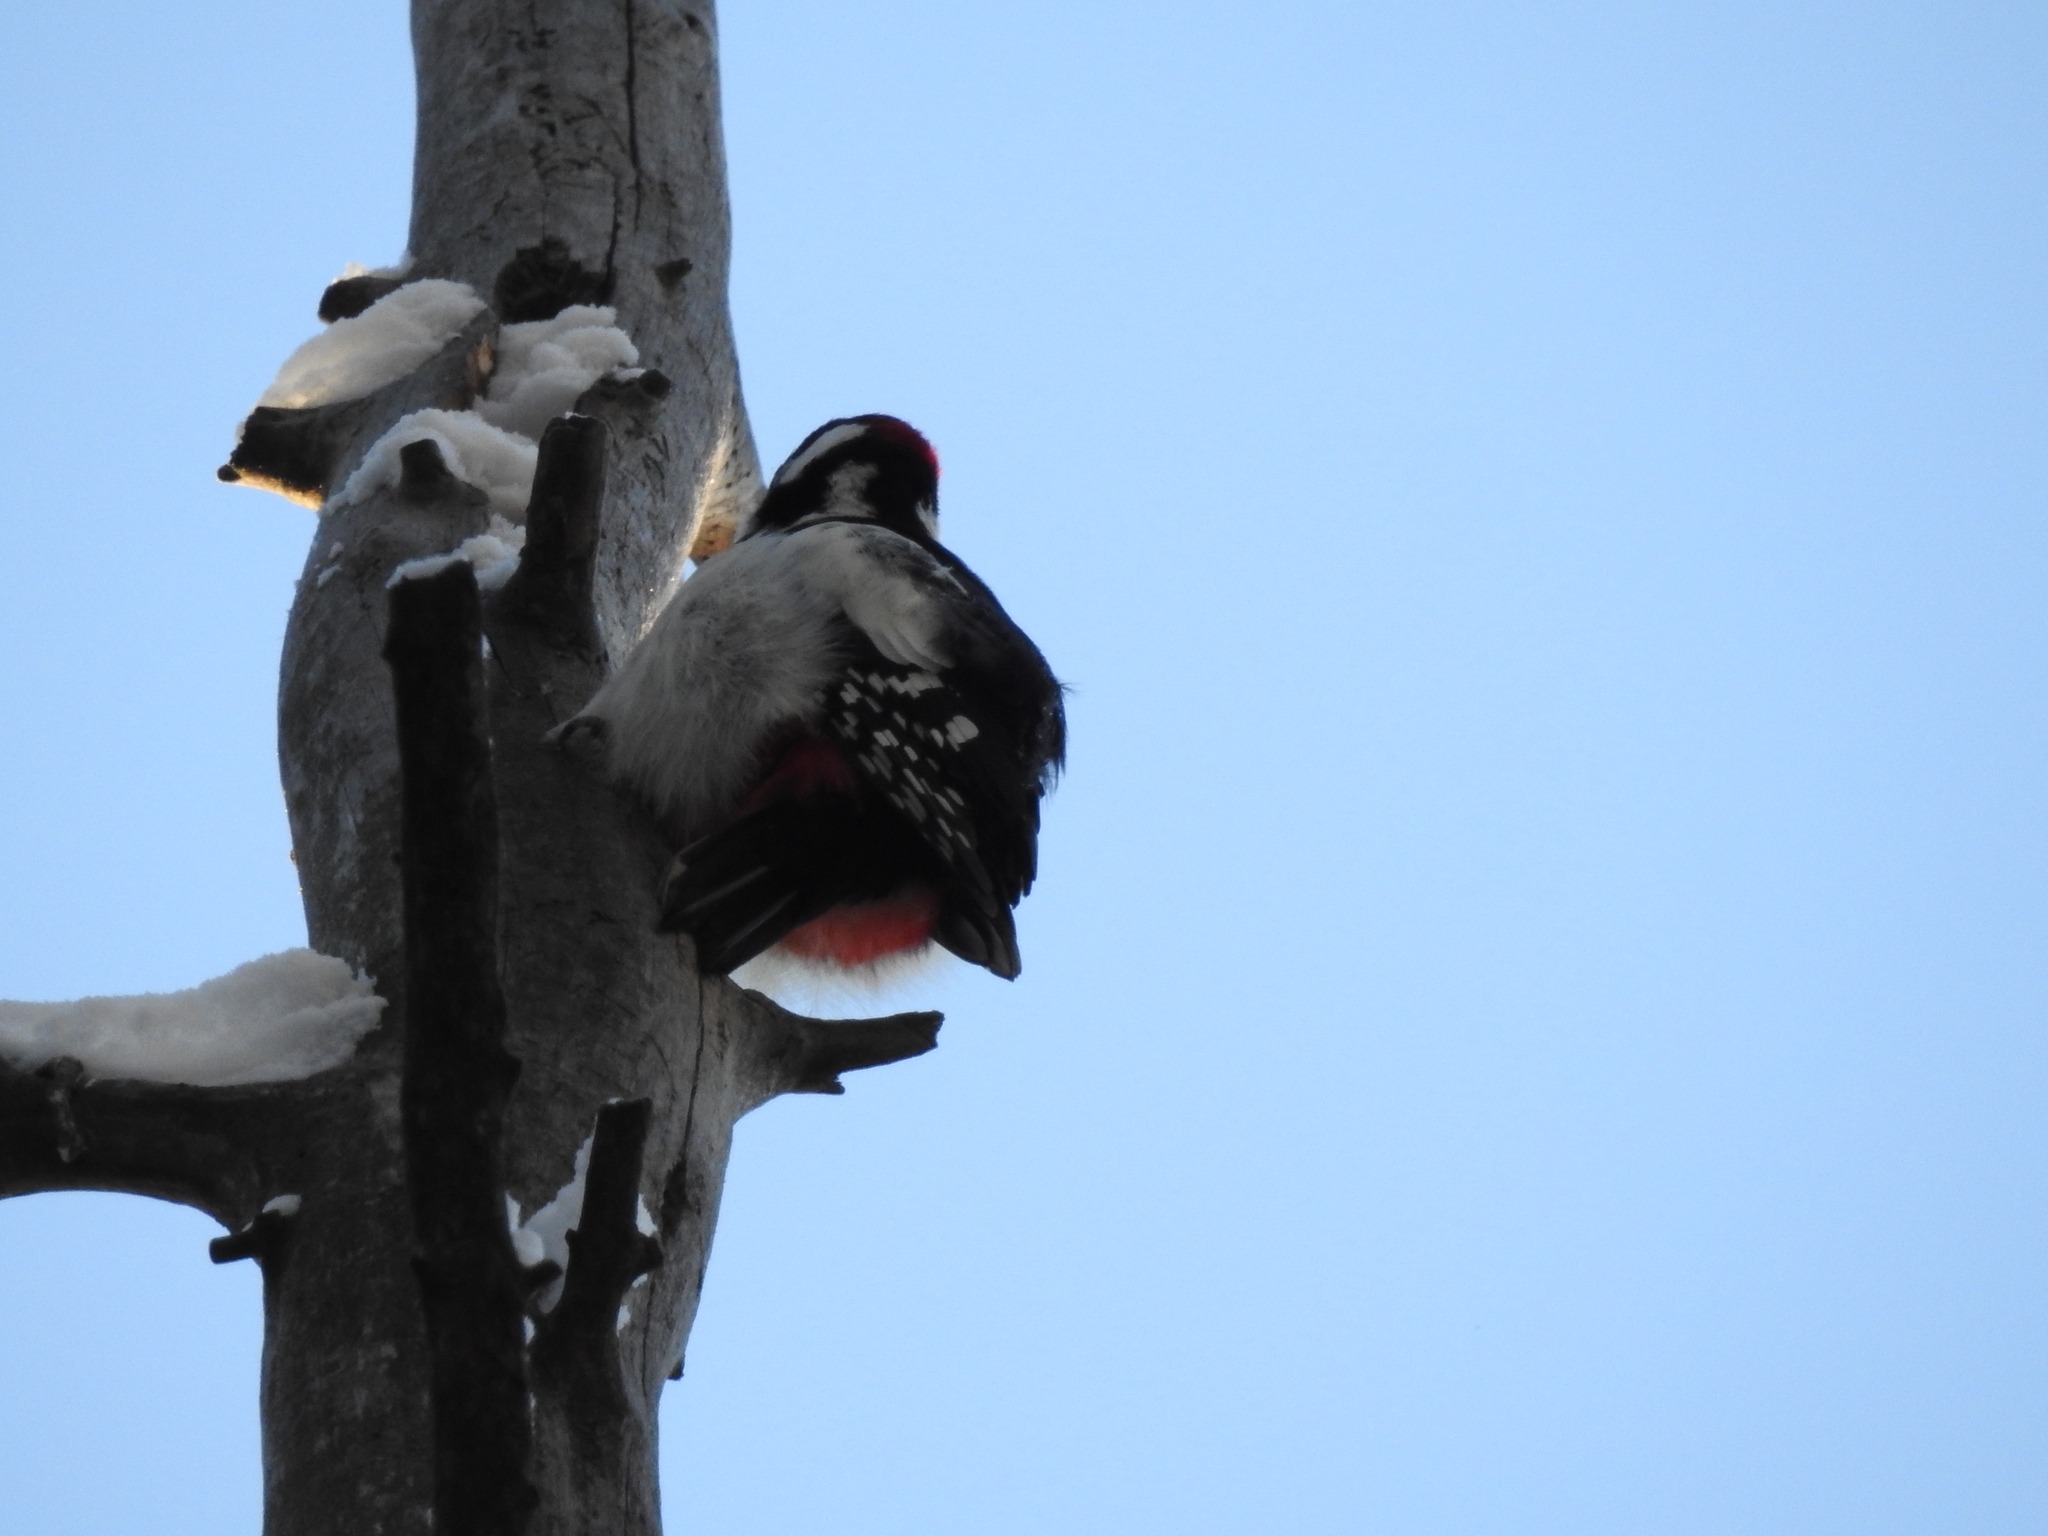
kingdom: Animalia
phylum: Chordata
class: Aves
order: Piciformes
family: Picidae
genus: Dendrocopos
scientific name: Dendrocopos major
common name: Great spotted woodpecker
